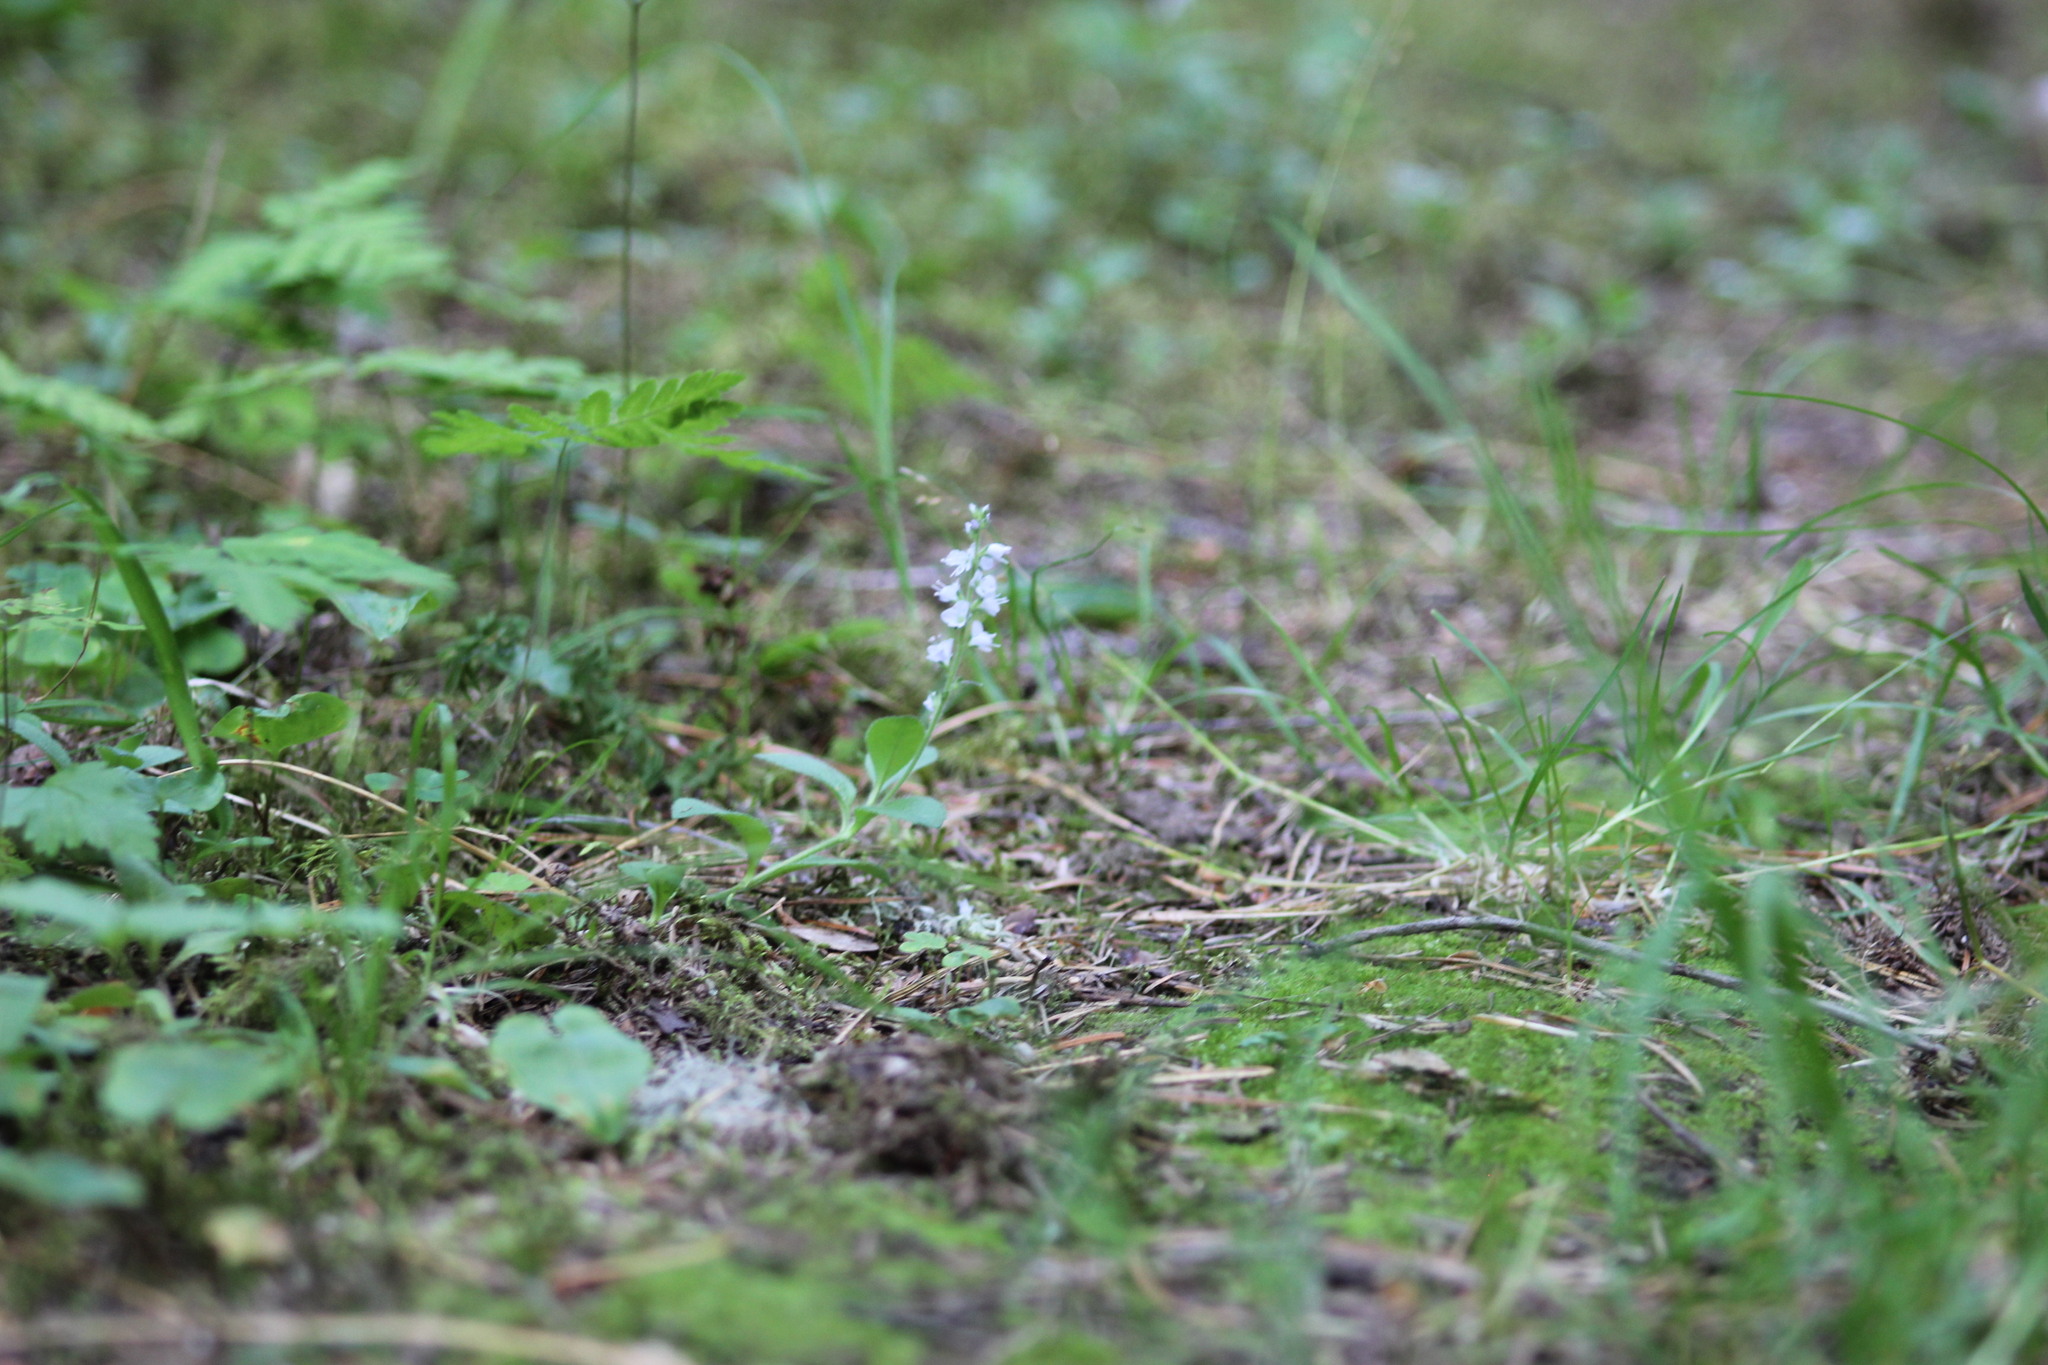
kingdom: Plantae
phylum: Tracheophyta
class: Magnoliopsida
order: Lamiales
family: Plantaginaceae
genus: Veronica
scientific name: Veronica officinalis
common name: Common speedwell
